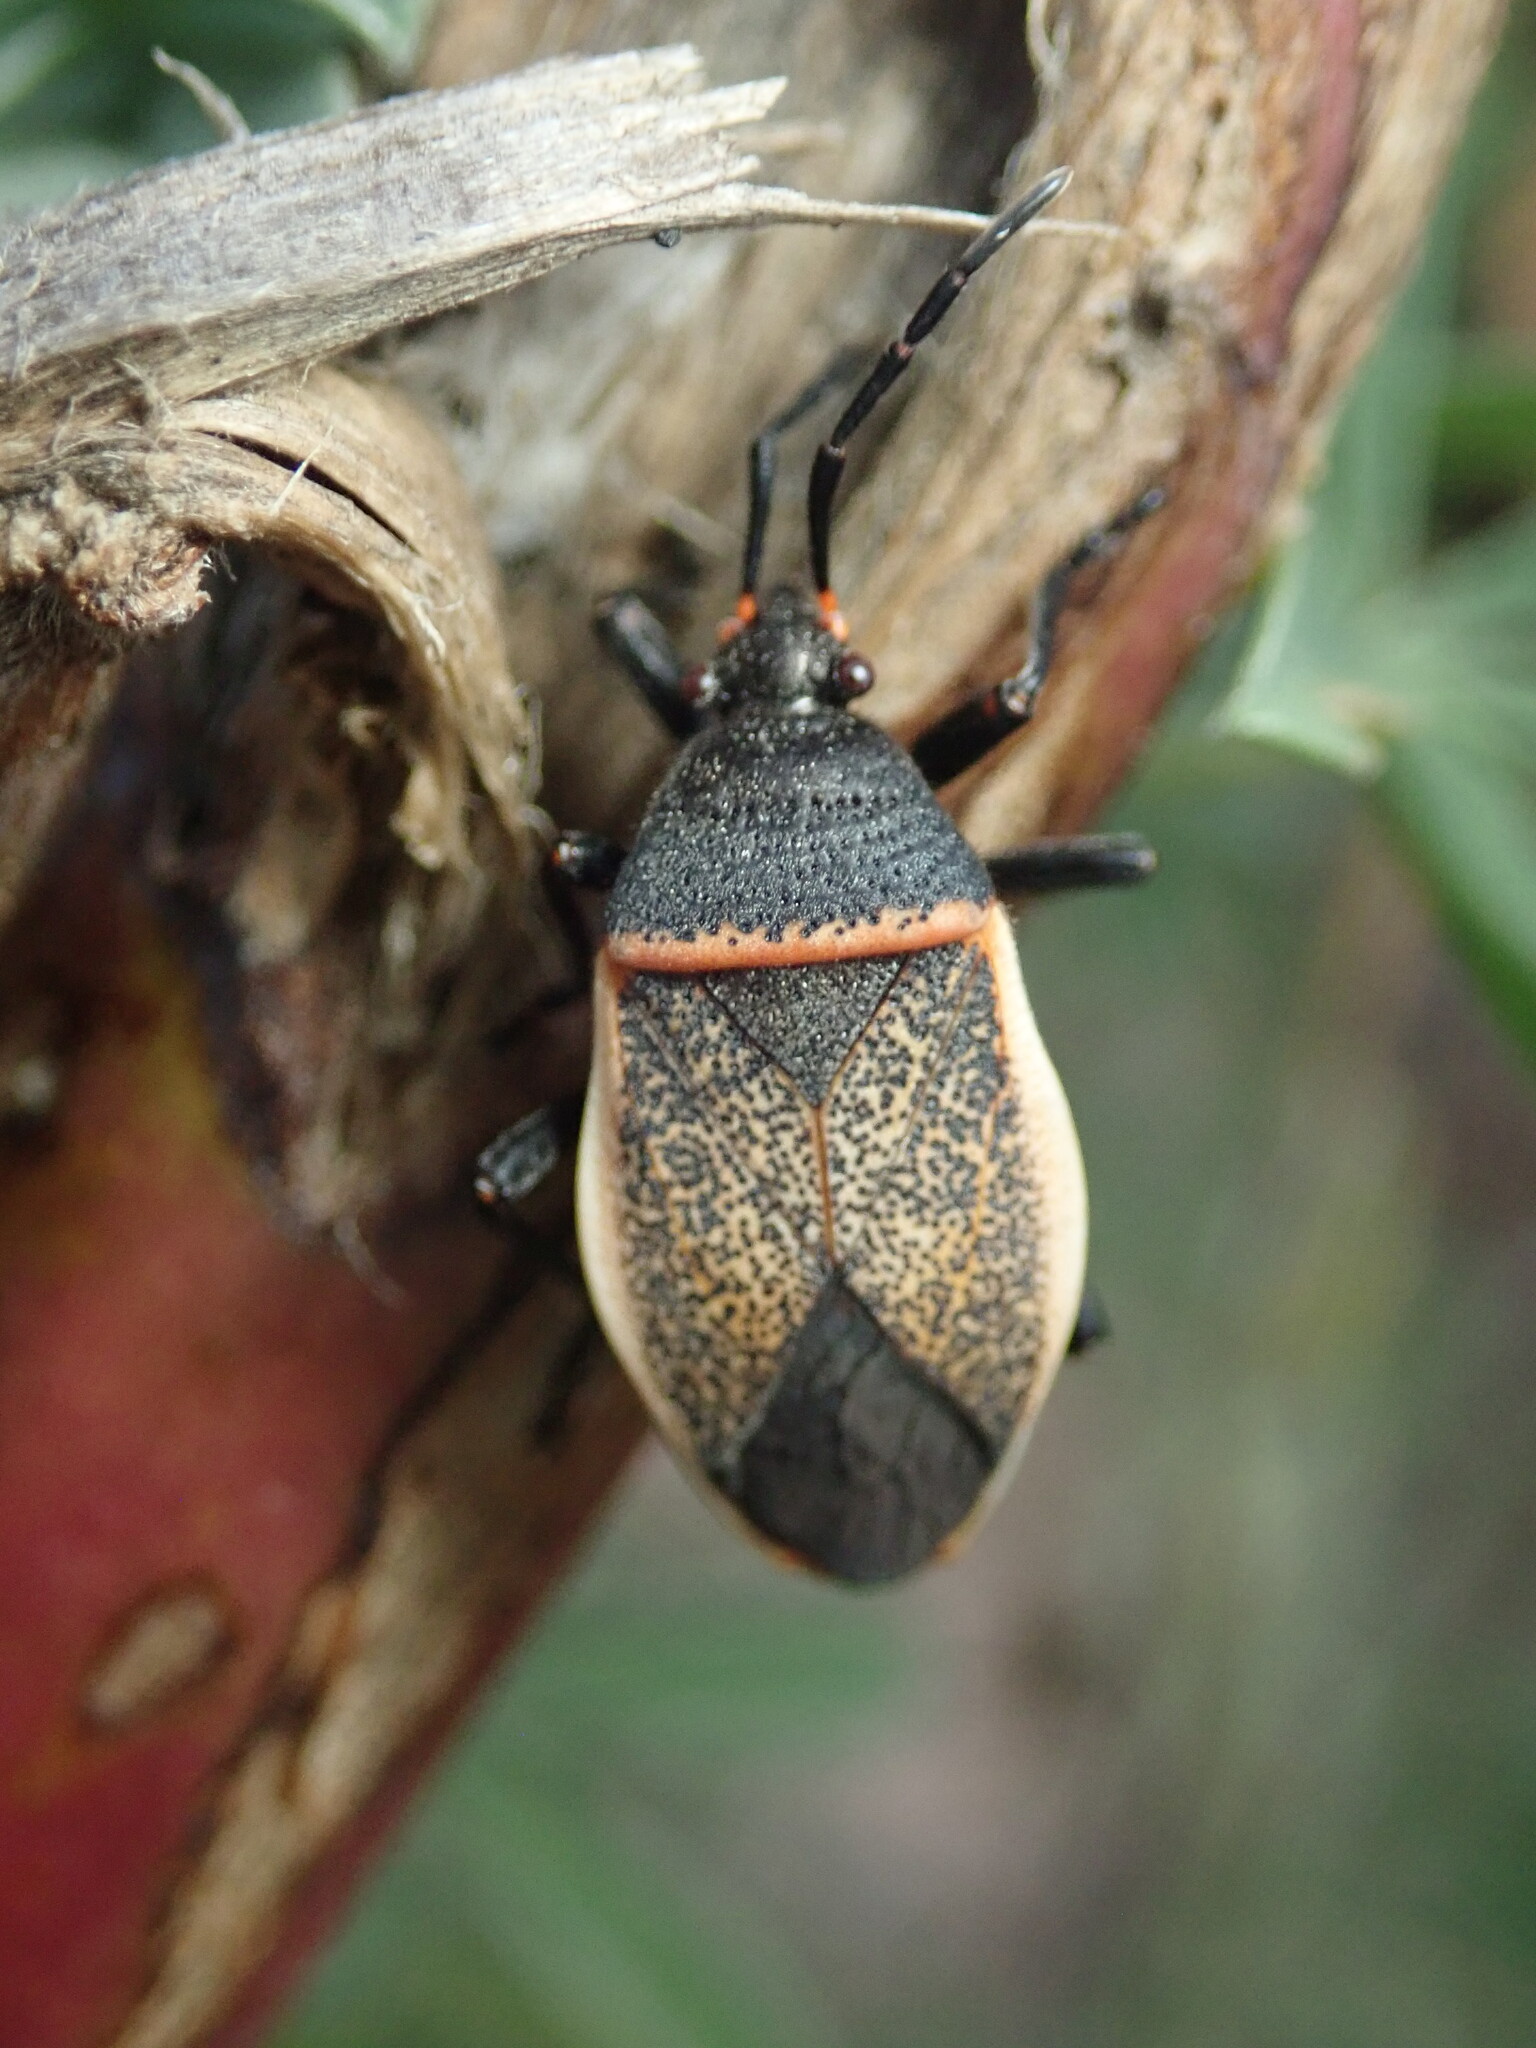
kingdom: Animalia
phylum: Arthropoda
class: Insecta
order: Hemiptera
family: Largidae
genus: Largus
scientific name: Largus californicus
